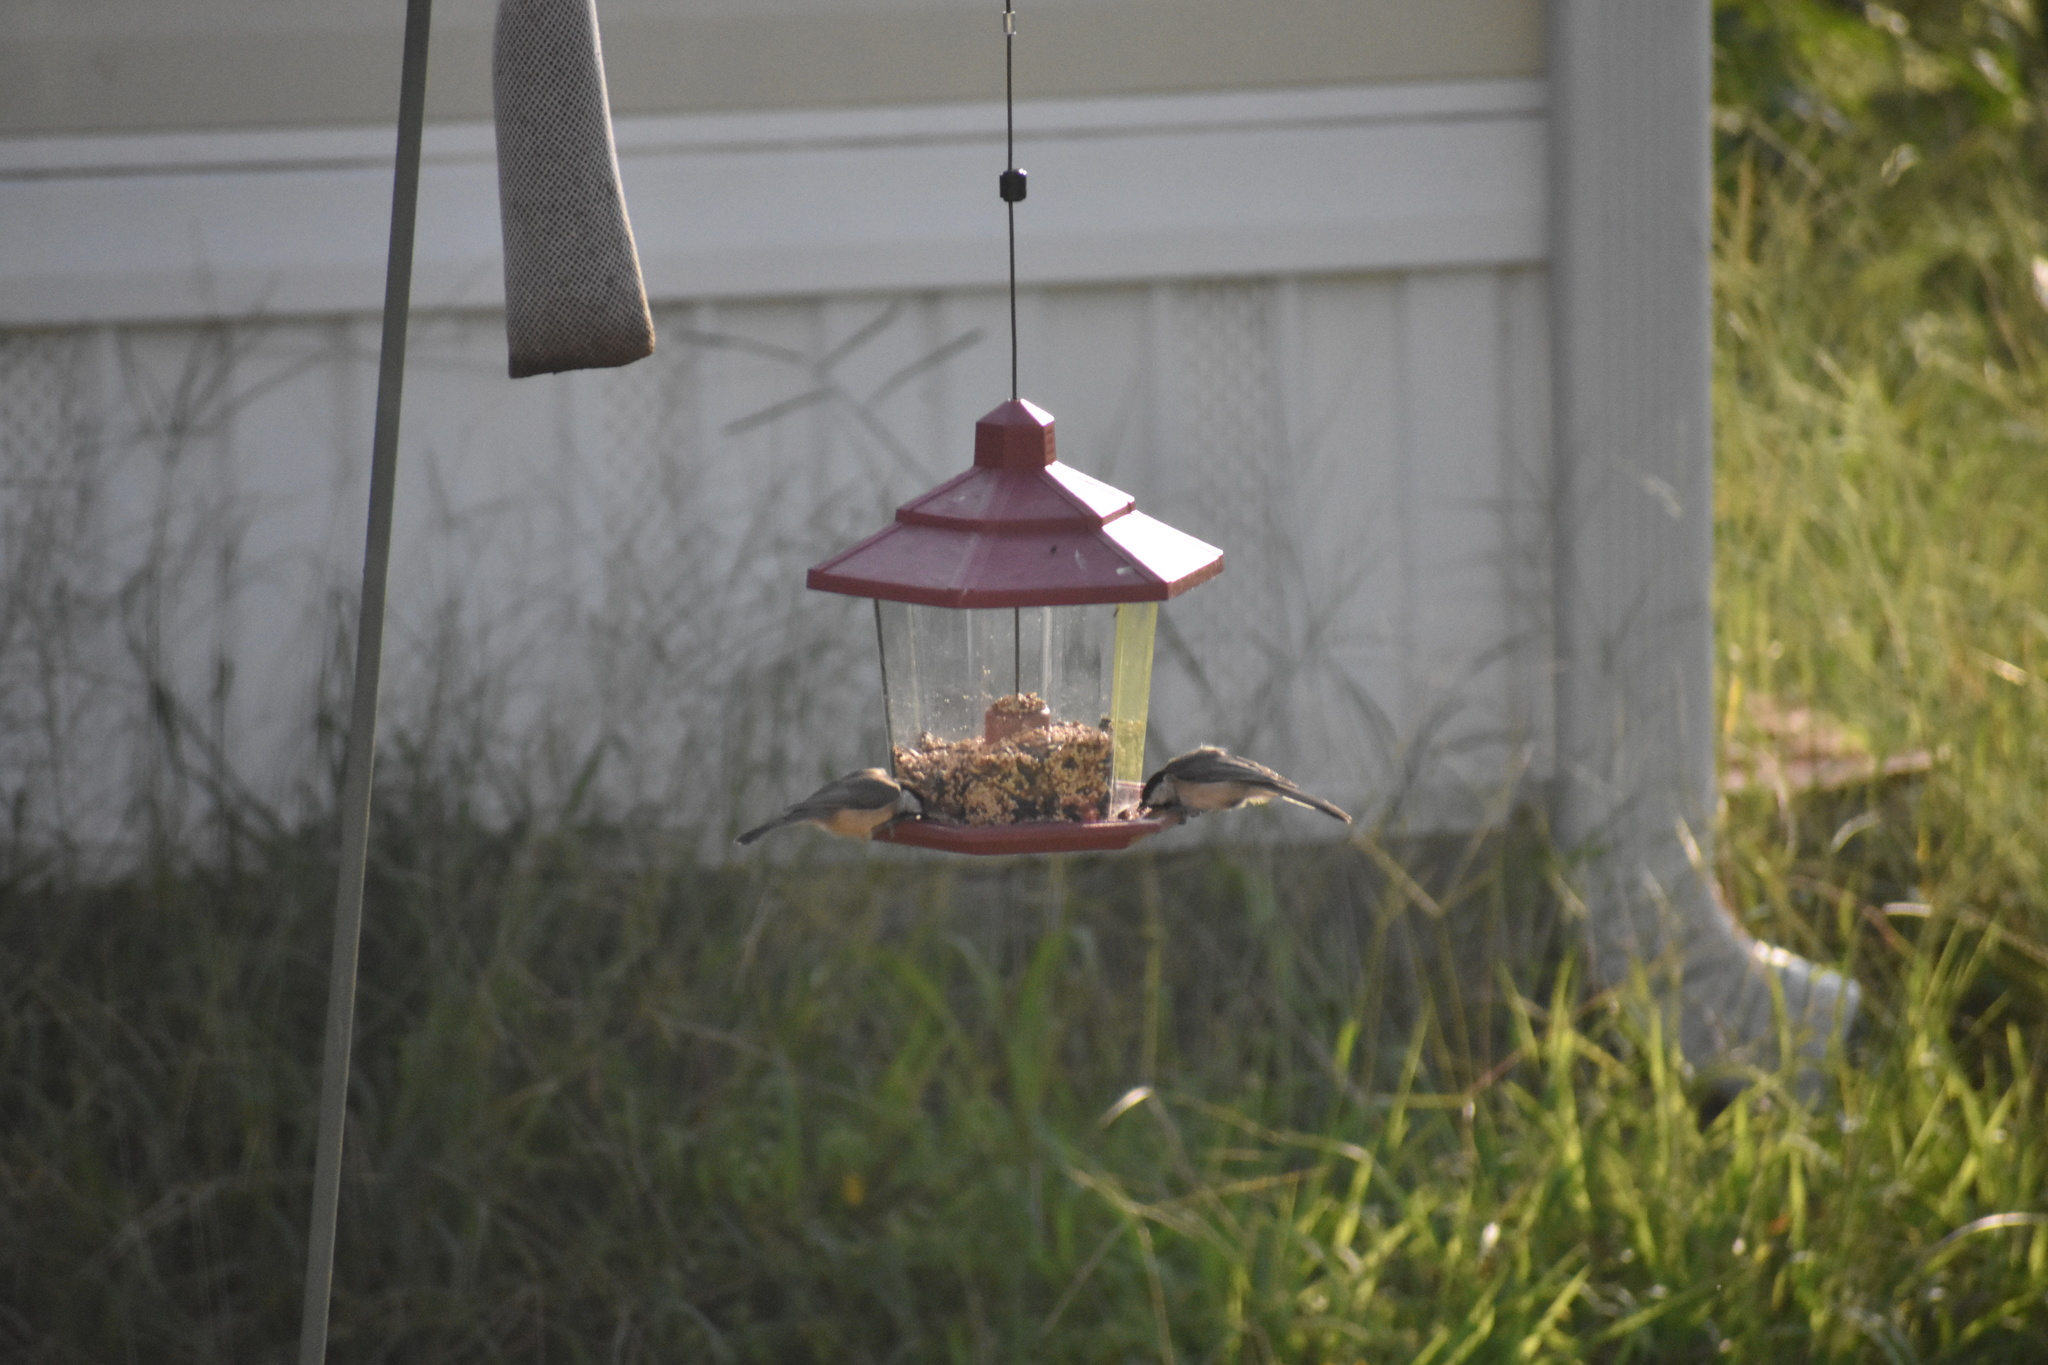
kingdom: Animalia
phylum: Chordata
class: Aves
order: Passeriformes
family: Paridae
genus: Poecile
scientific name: Poecile carolinensis
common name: Carolina chickadee
